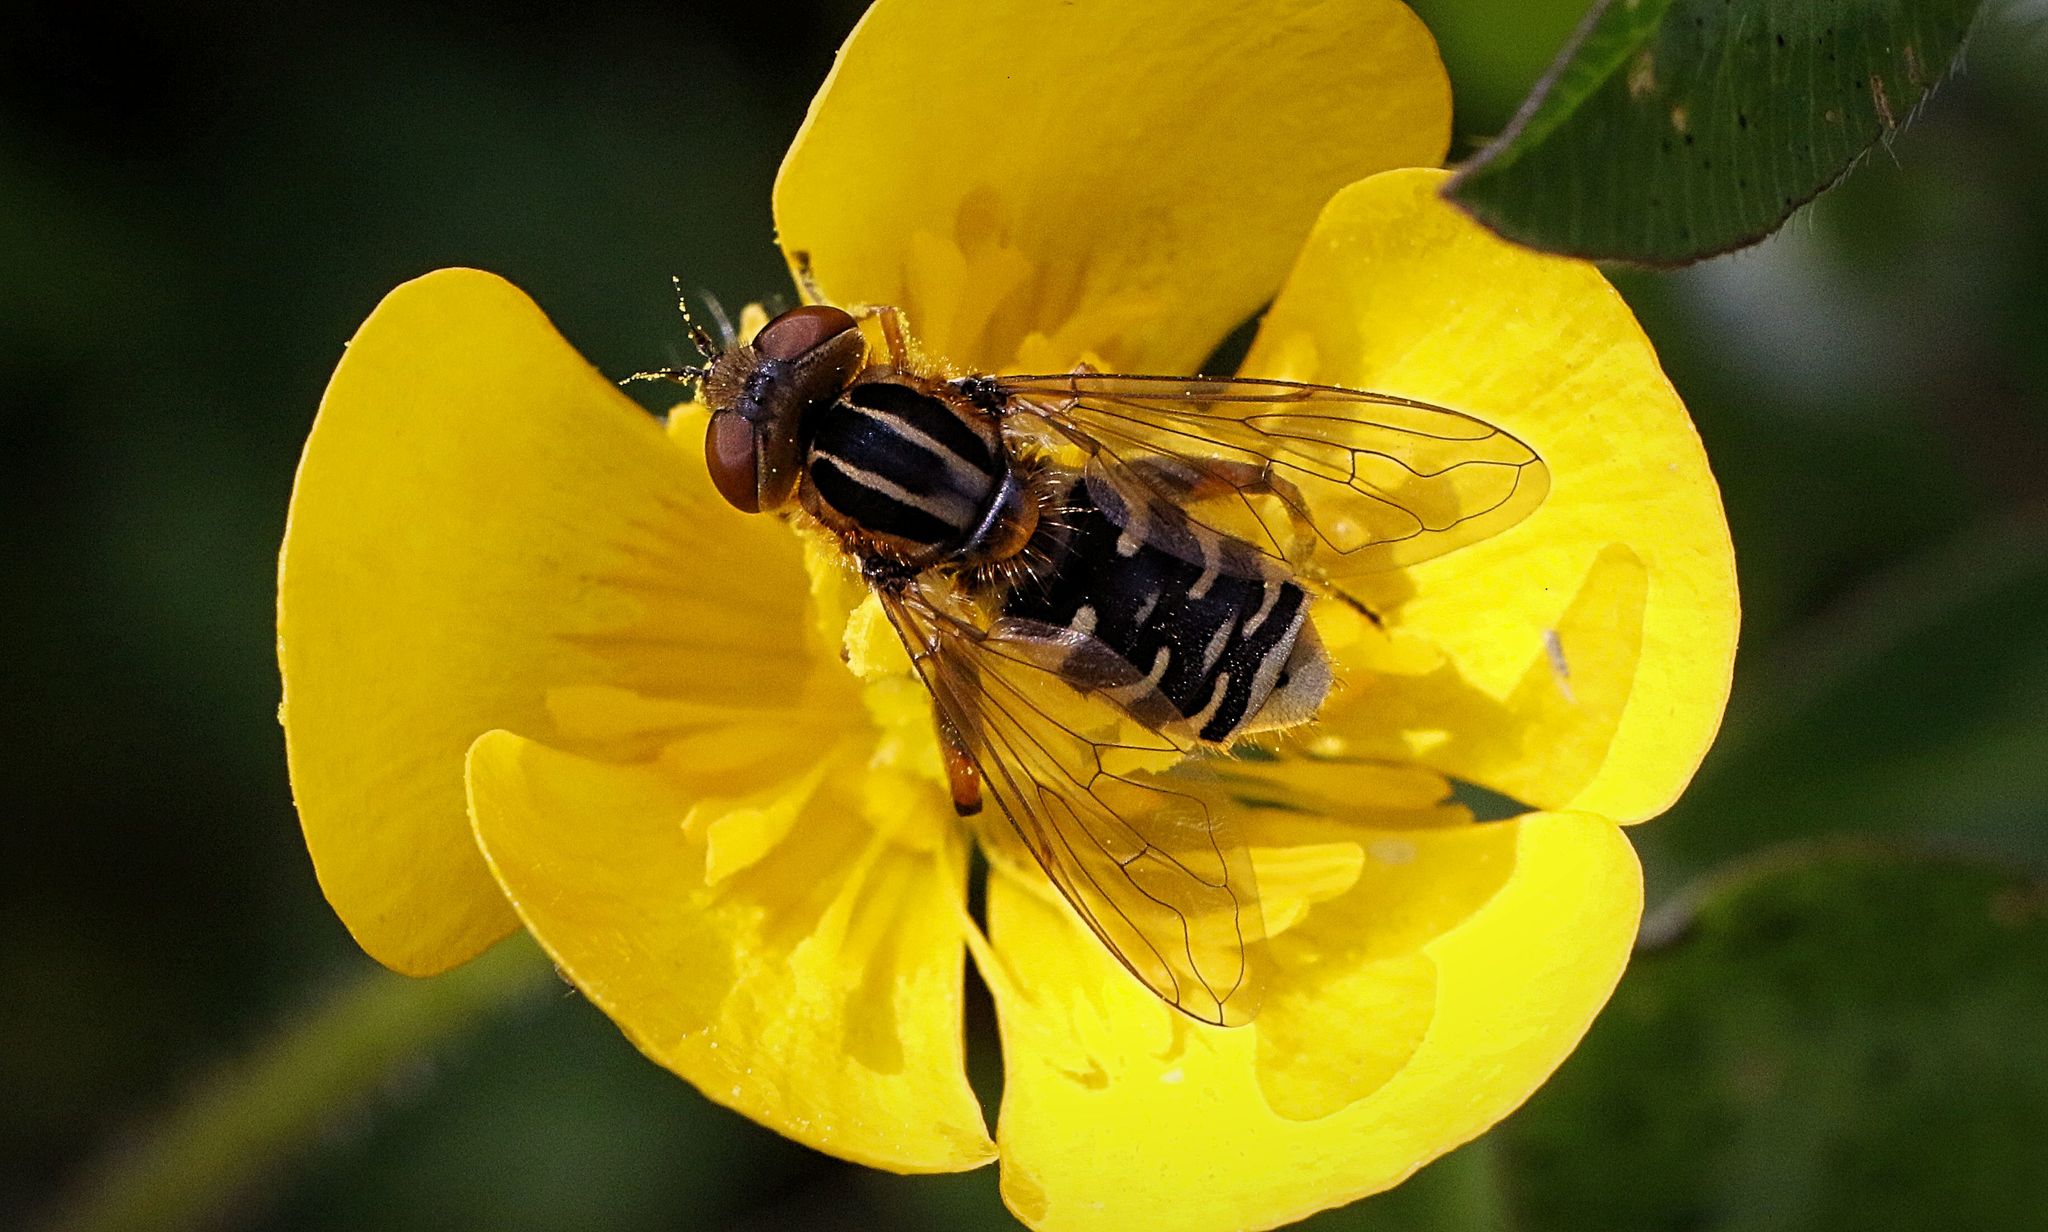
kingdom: Animalia
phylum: Arthropoda
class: Insecta
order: Diptera
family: Syrphidae
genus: Eurimyia
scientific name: Eurimyia lineatus
